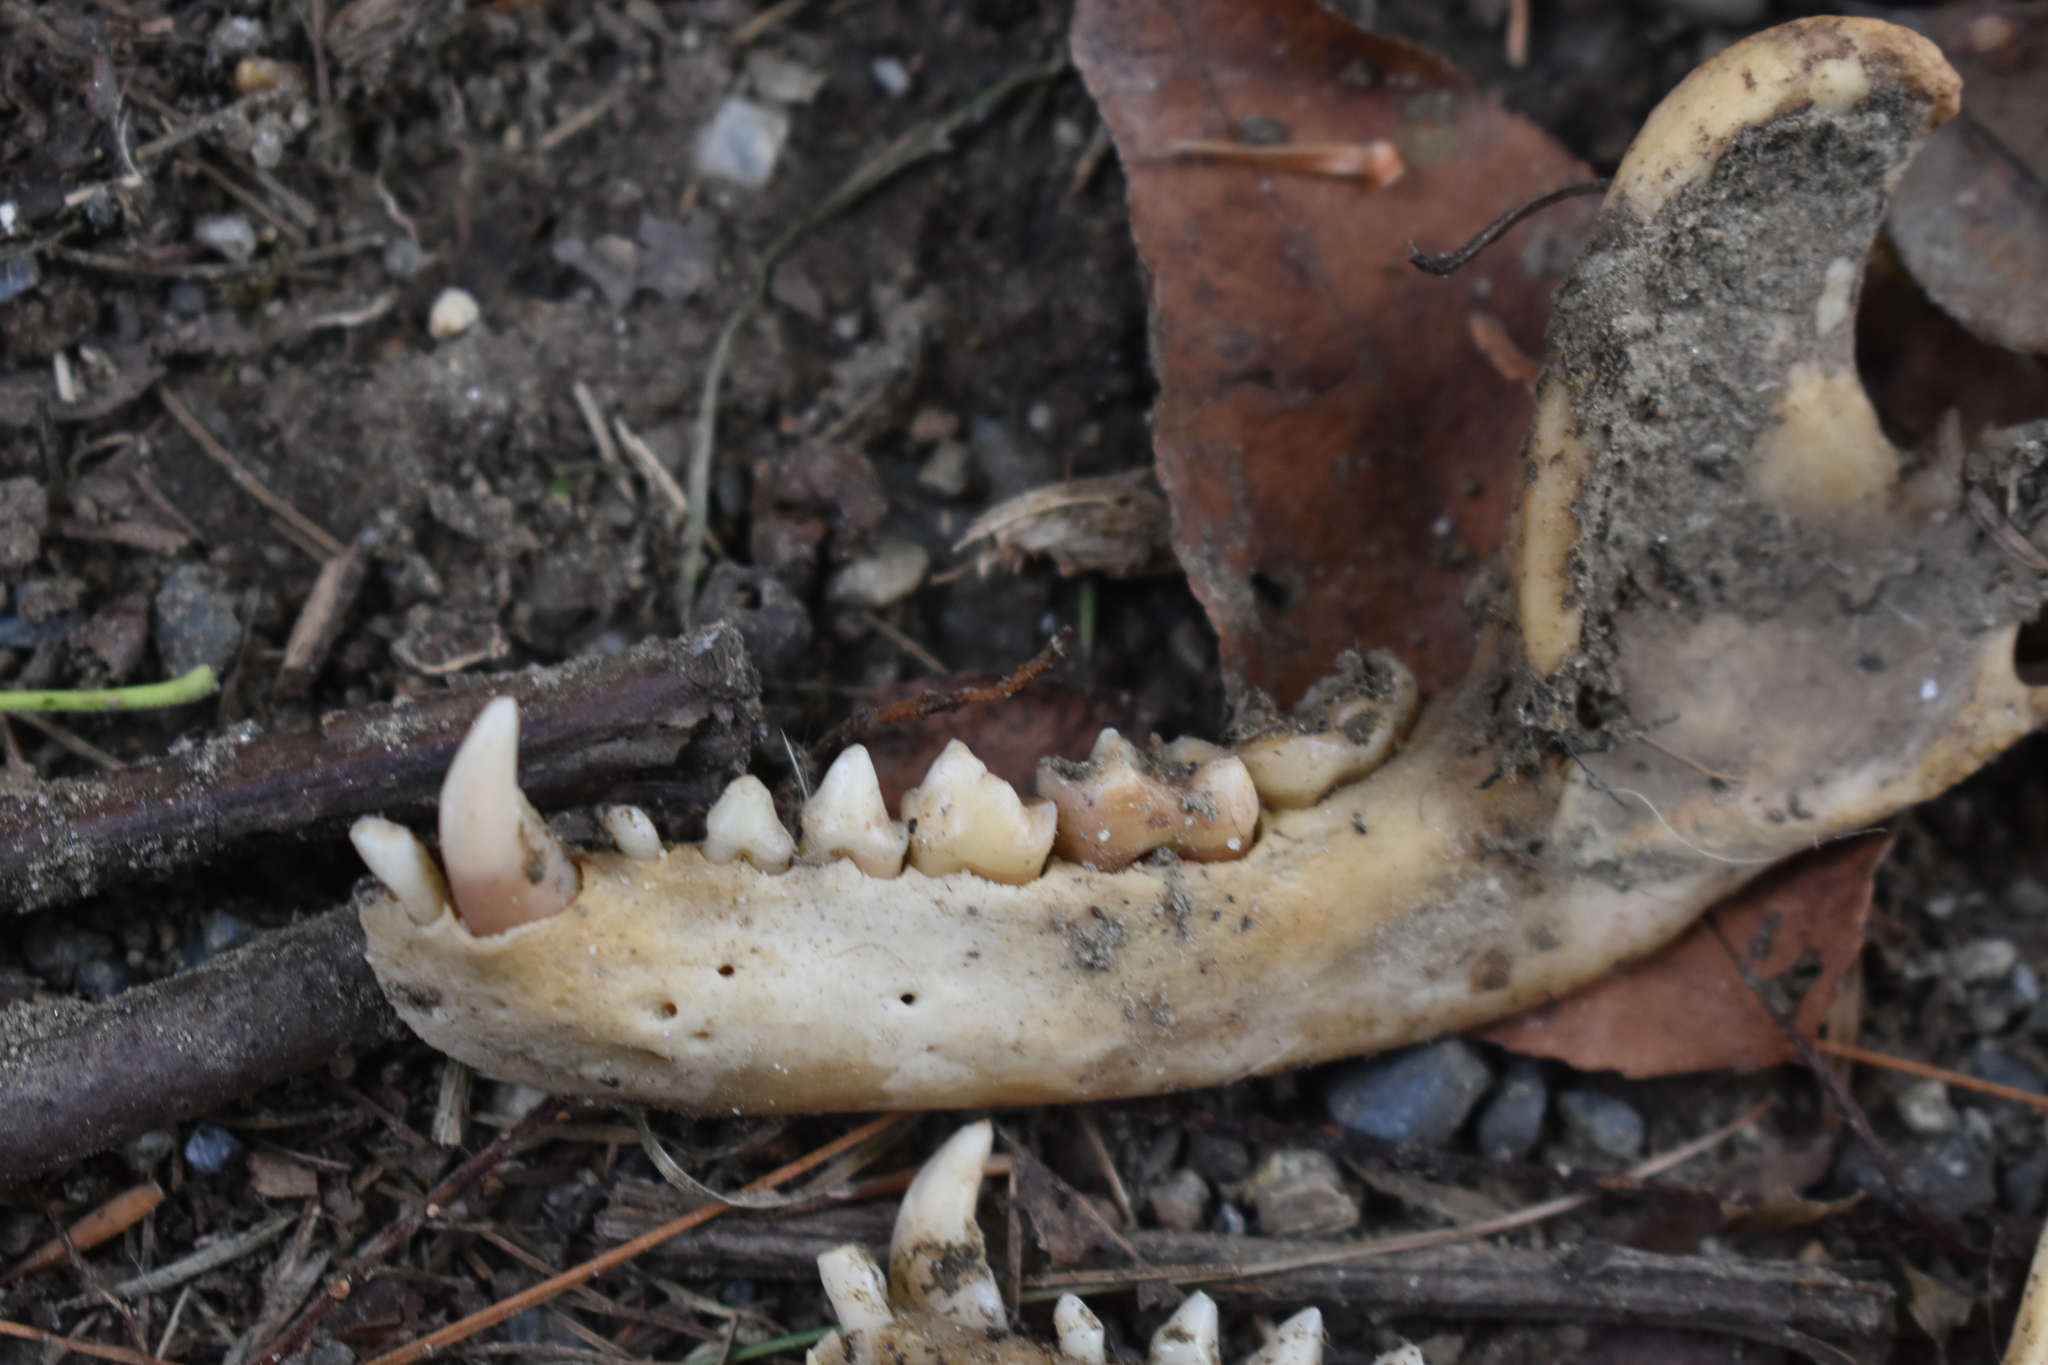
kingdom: Animalia
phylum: Chordata
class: Mammalia
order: Carnivora
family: Procyonidae
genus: Procyon
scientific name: Procyon lotor
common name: Raccoon
